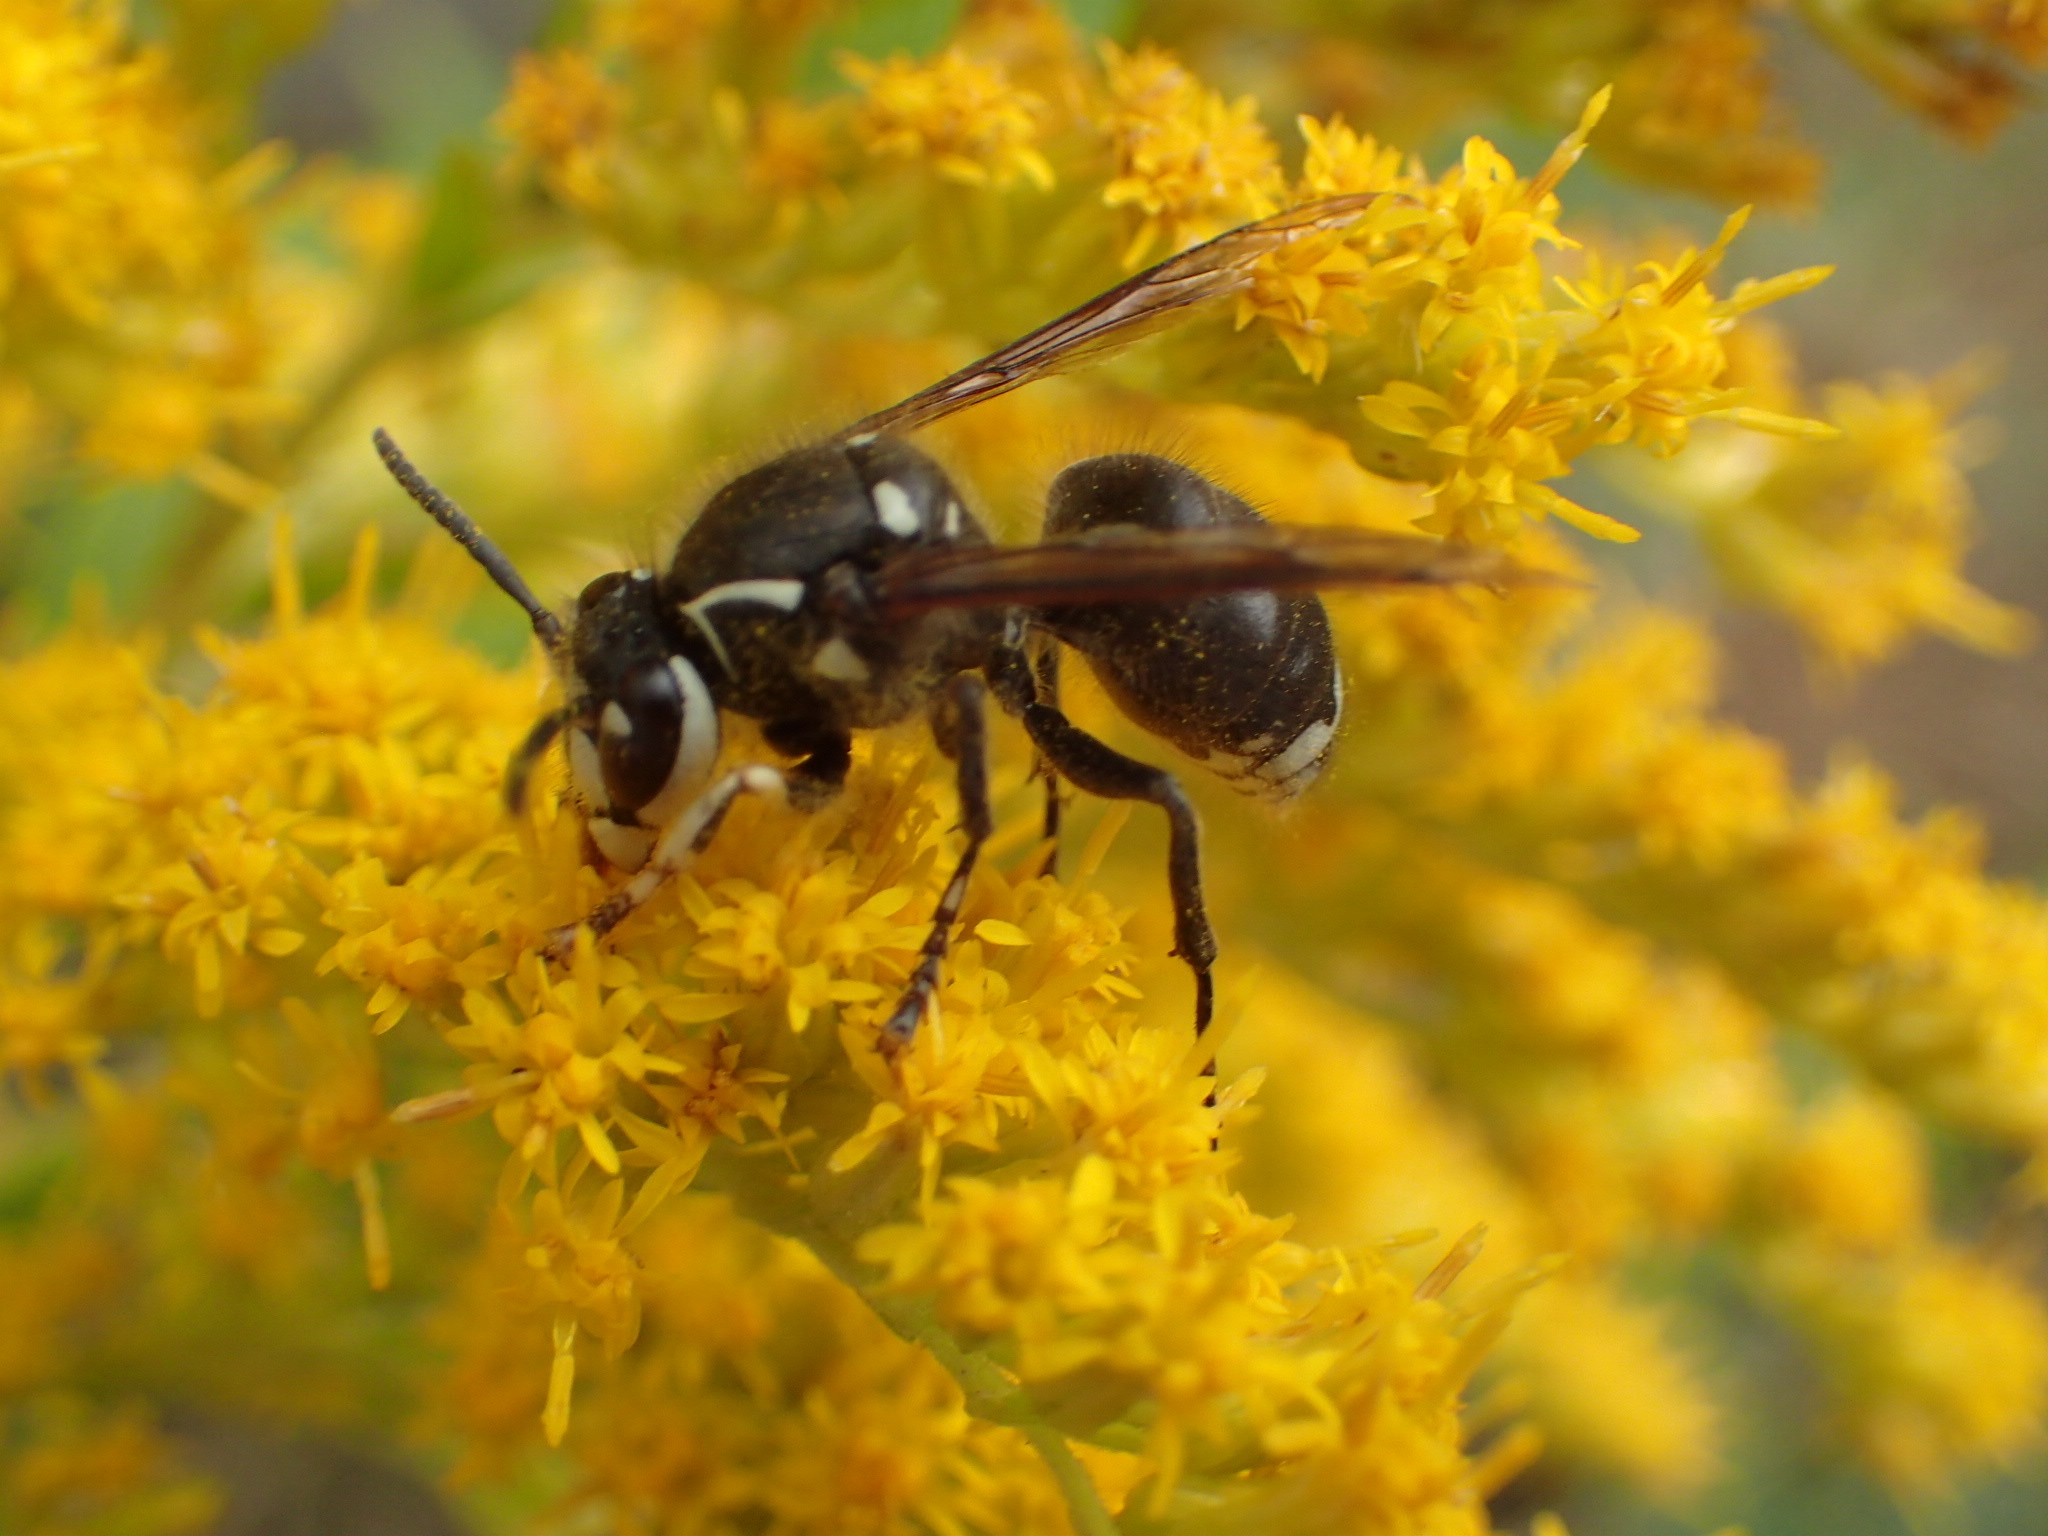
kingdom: Animalia
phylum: Arthropoda
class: Insecta
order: Hymenoptera
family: Vespidae
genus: Dolichovespula
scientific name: Dolichovespula maculata
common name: Bald-faced hornet
